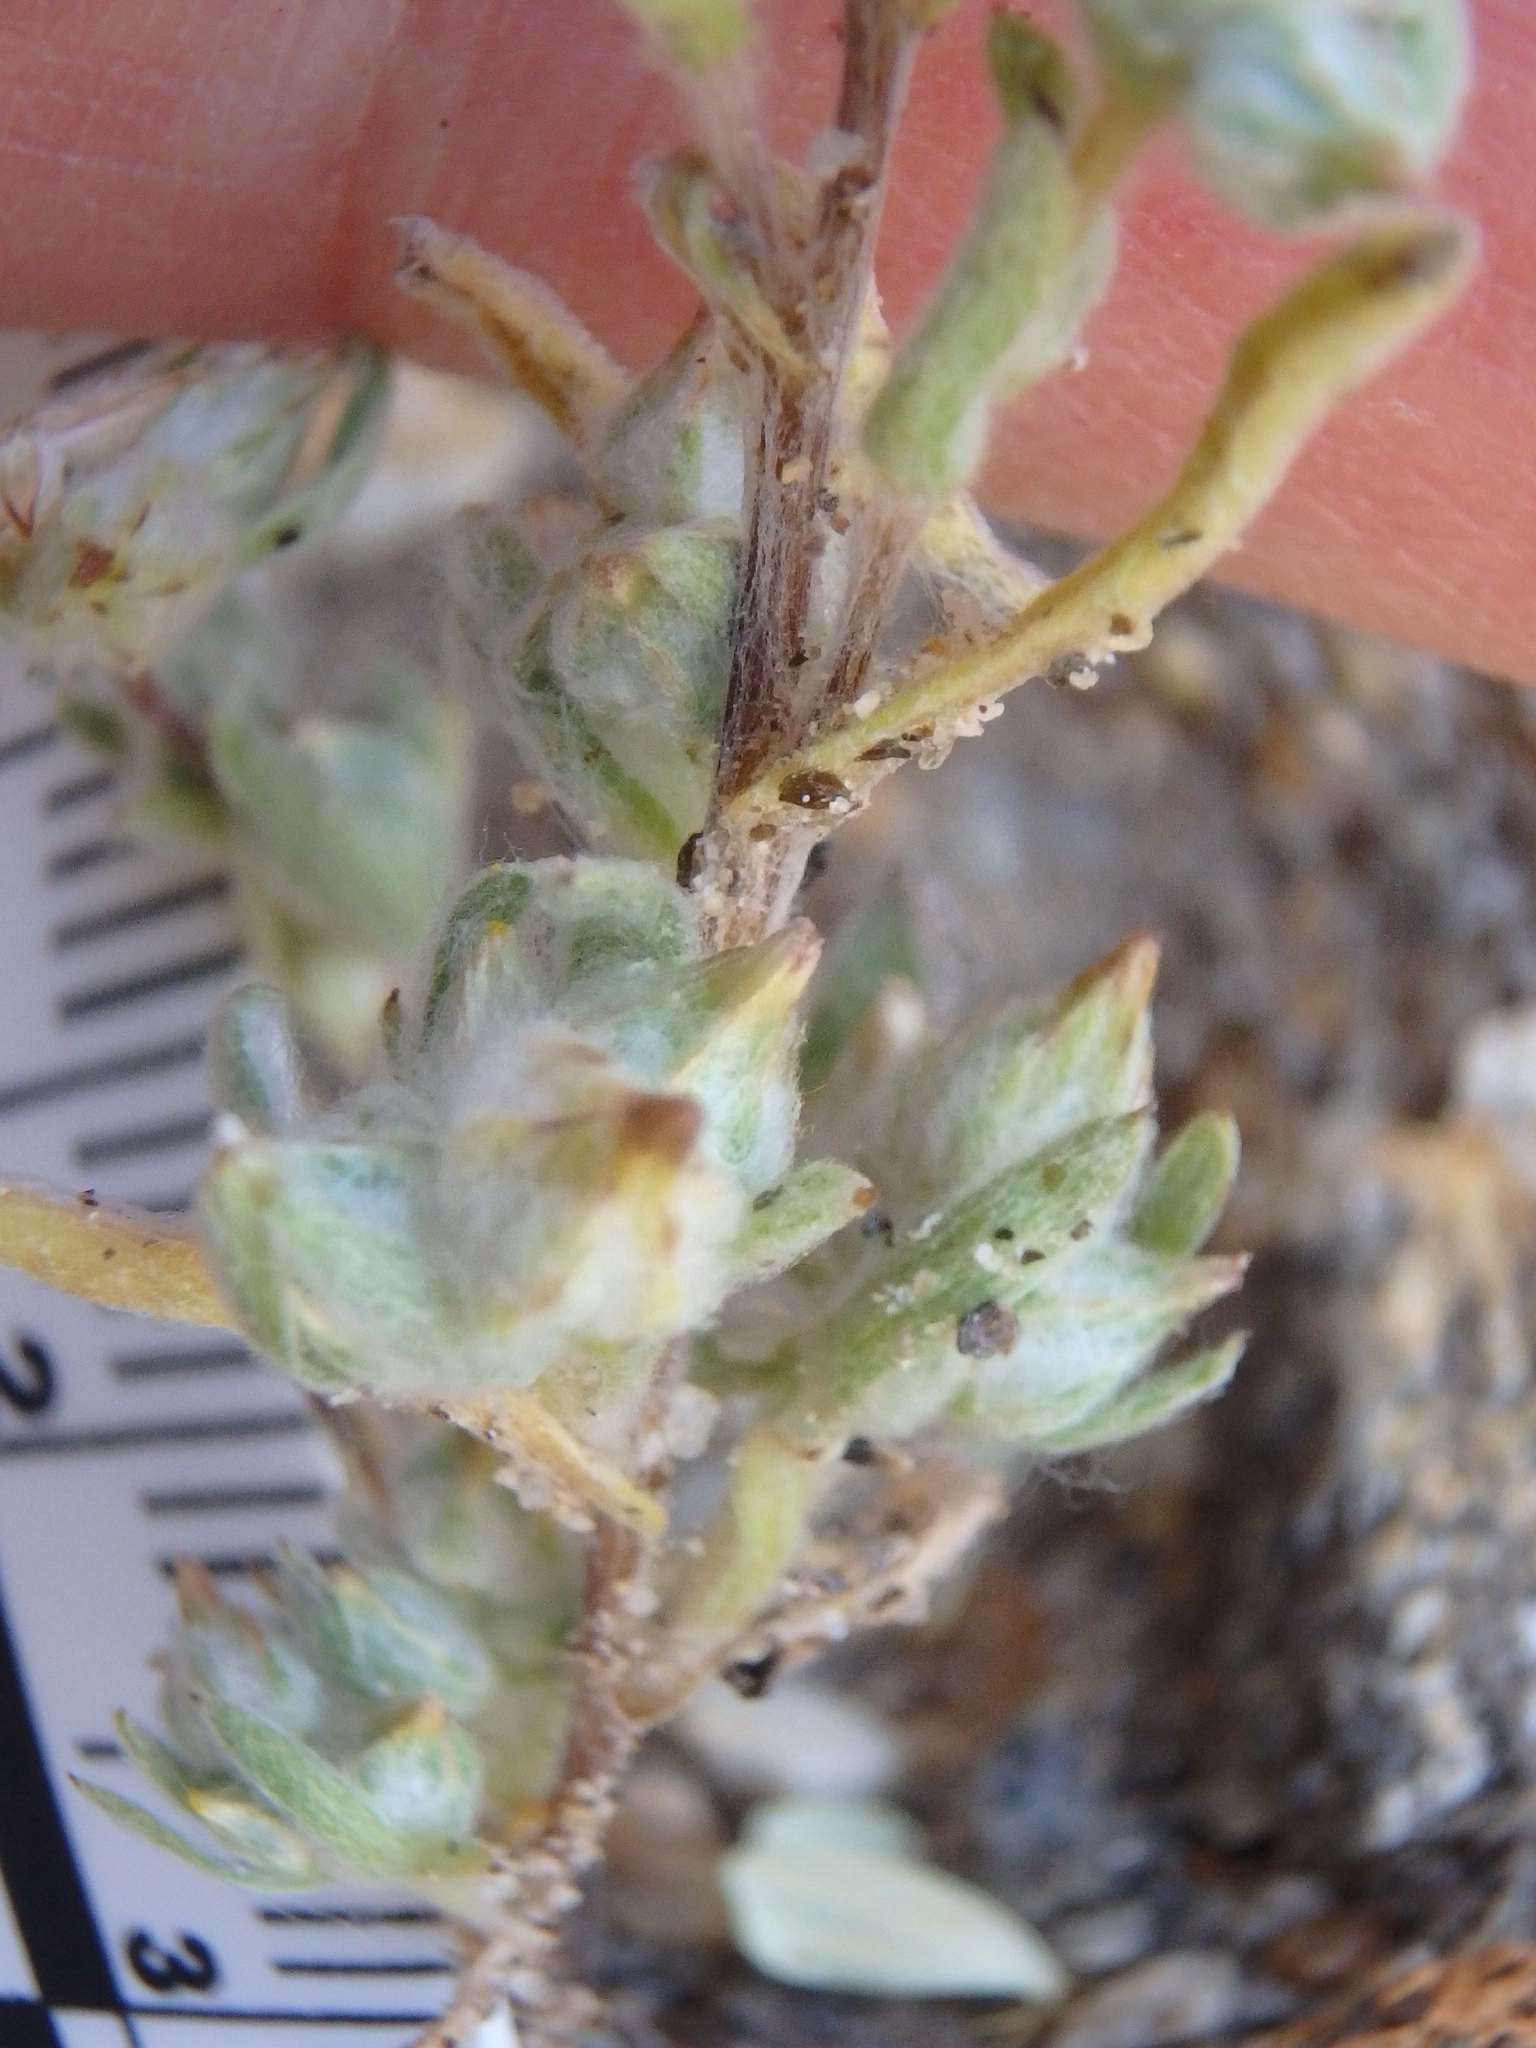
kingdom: Plantae
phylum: Tracheophyta
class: Magnoliopsida
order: Asterales
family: Asteraceae
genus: Logfia
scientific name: Logfia californica
